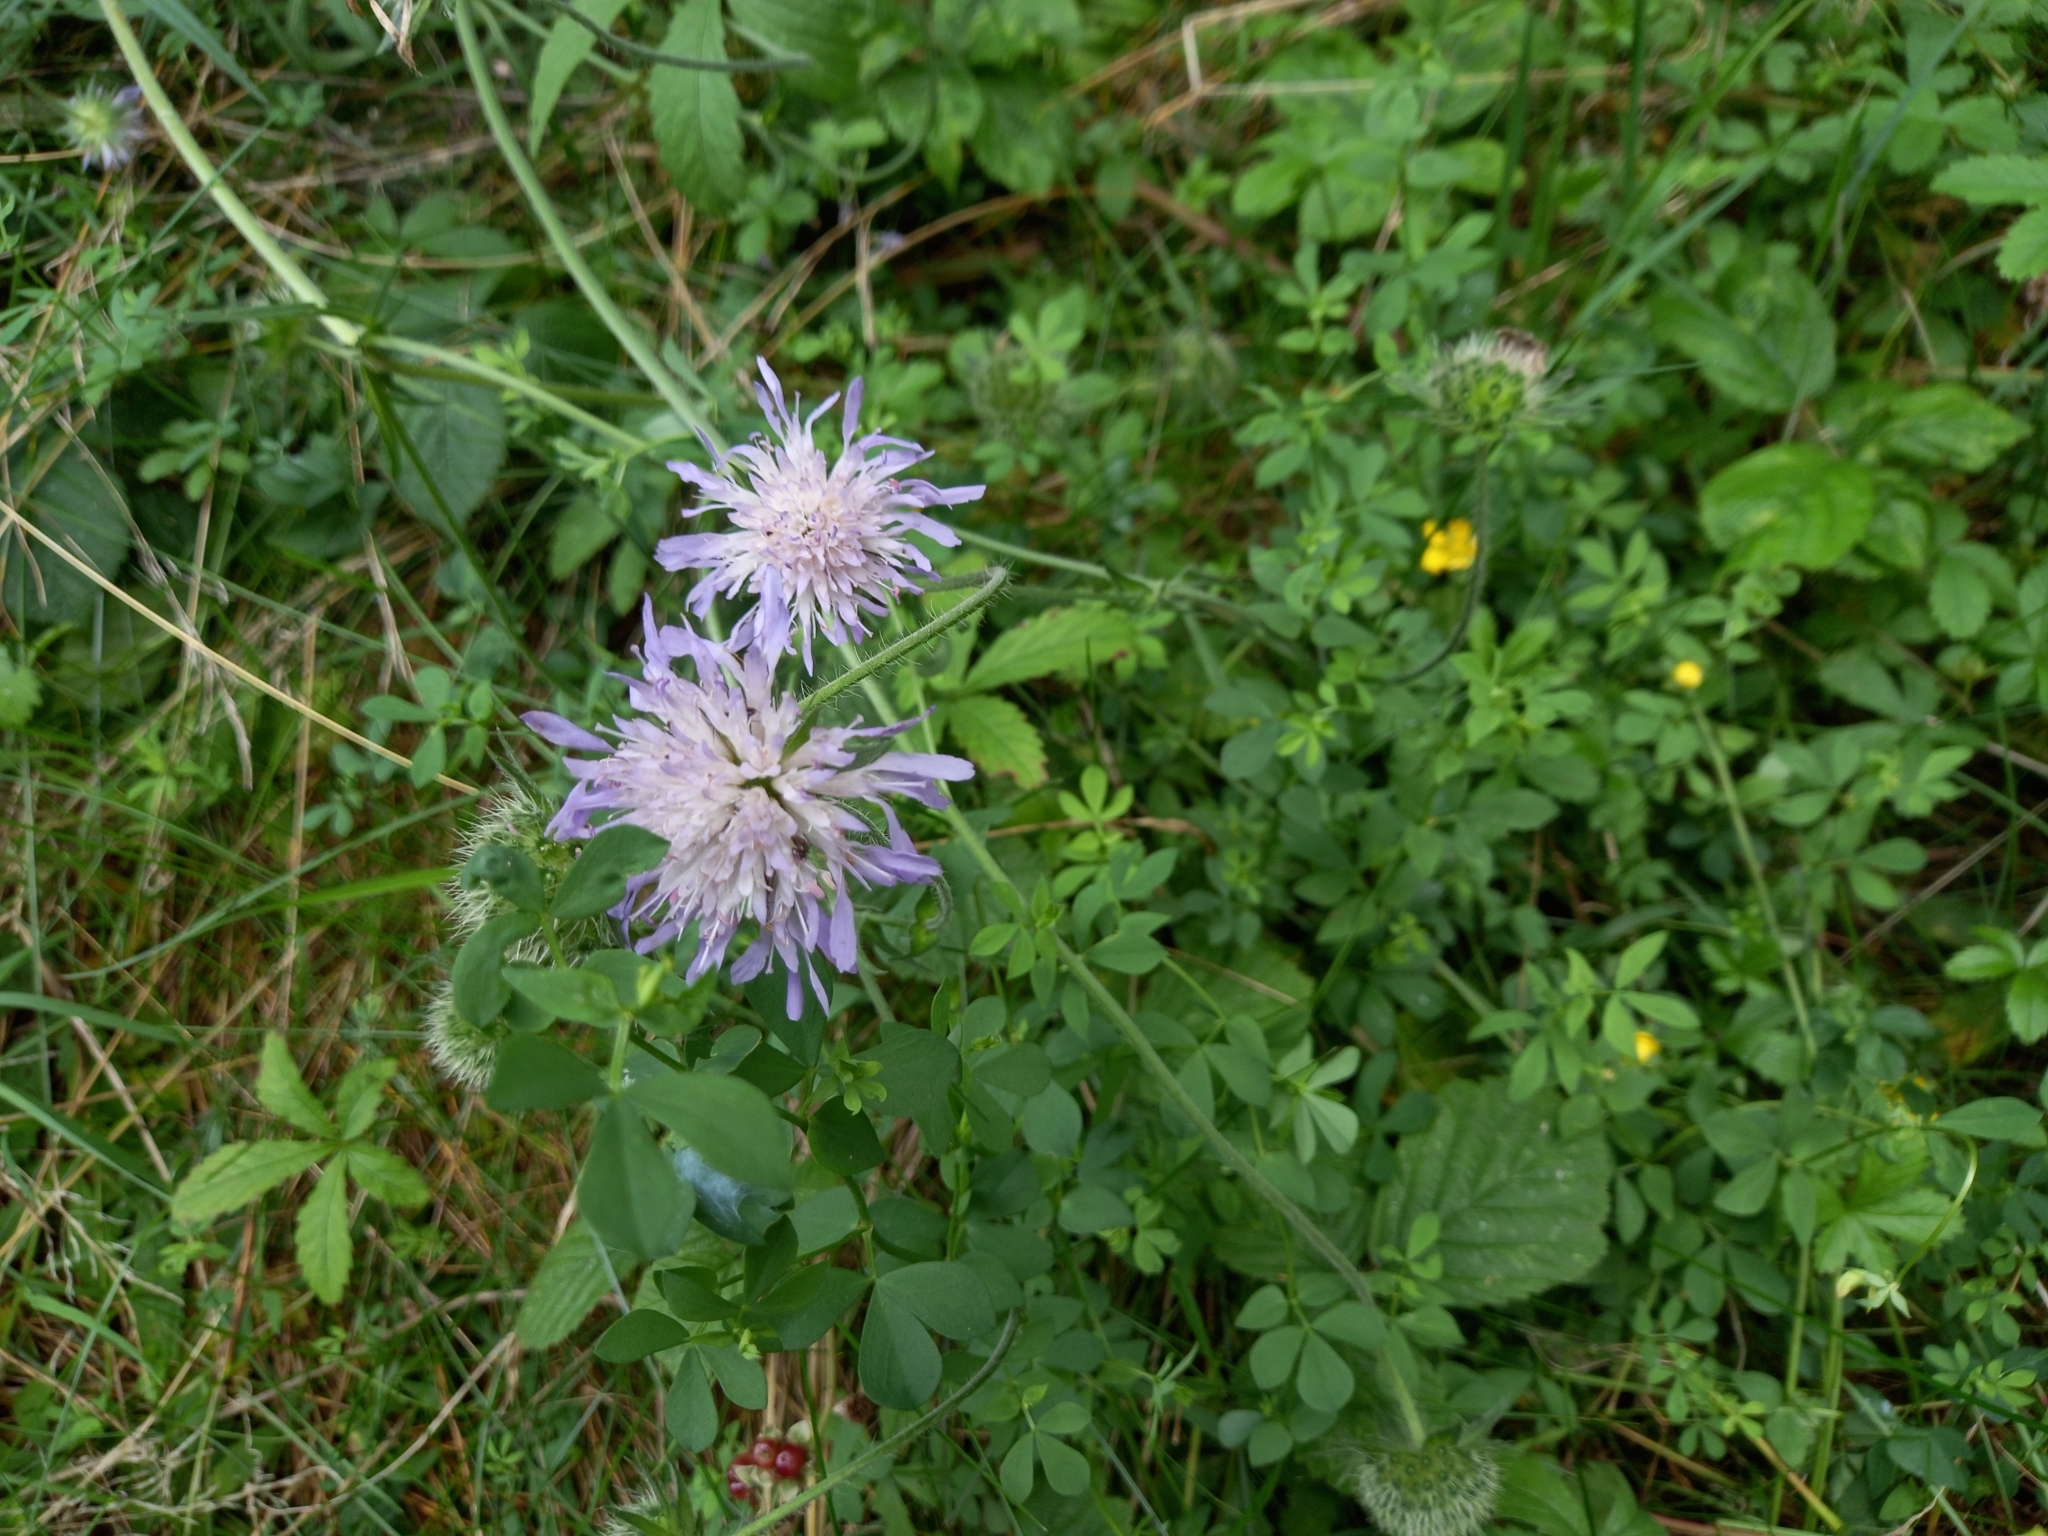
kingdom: Plantae
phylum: Tracheophyta
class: Magnoliopsida
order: Dipsacales
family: Caprifoliaceae
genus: Knautia
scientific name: Knautia arvensis
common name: Field scabiosa
